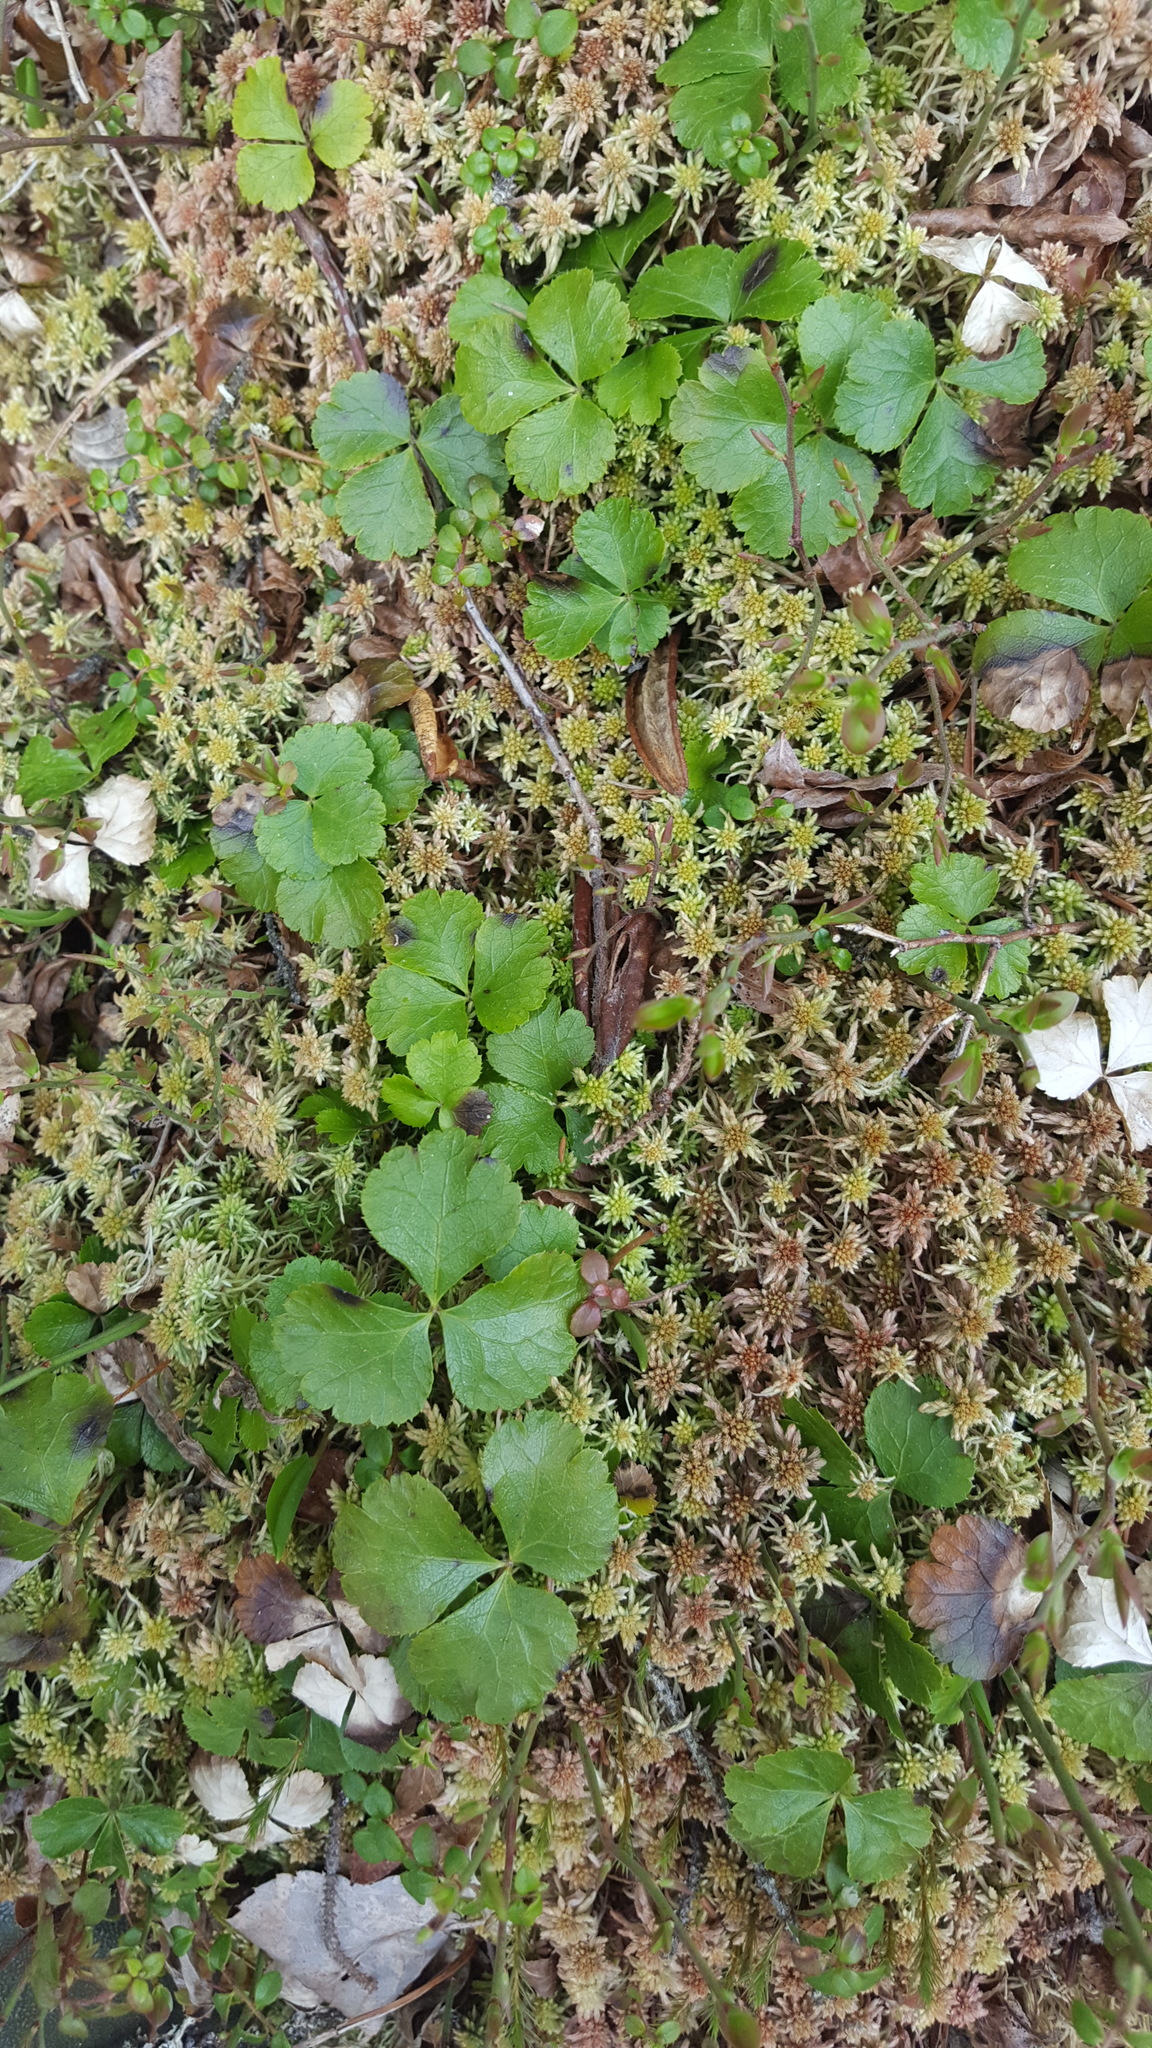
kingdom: Plantae
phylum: Tracheophyta
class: Magnoliopsida
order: Ranunculales
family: Ranunculaceae
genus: Coptis
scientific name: Coptis trifolia
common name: Canker-root
